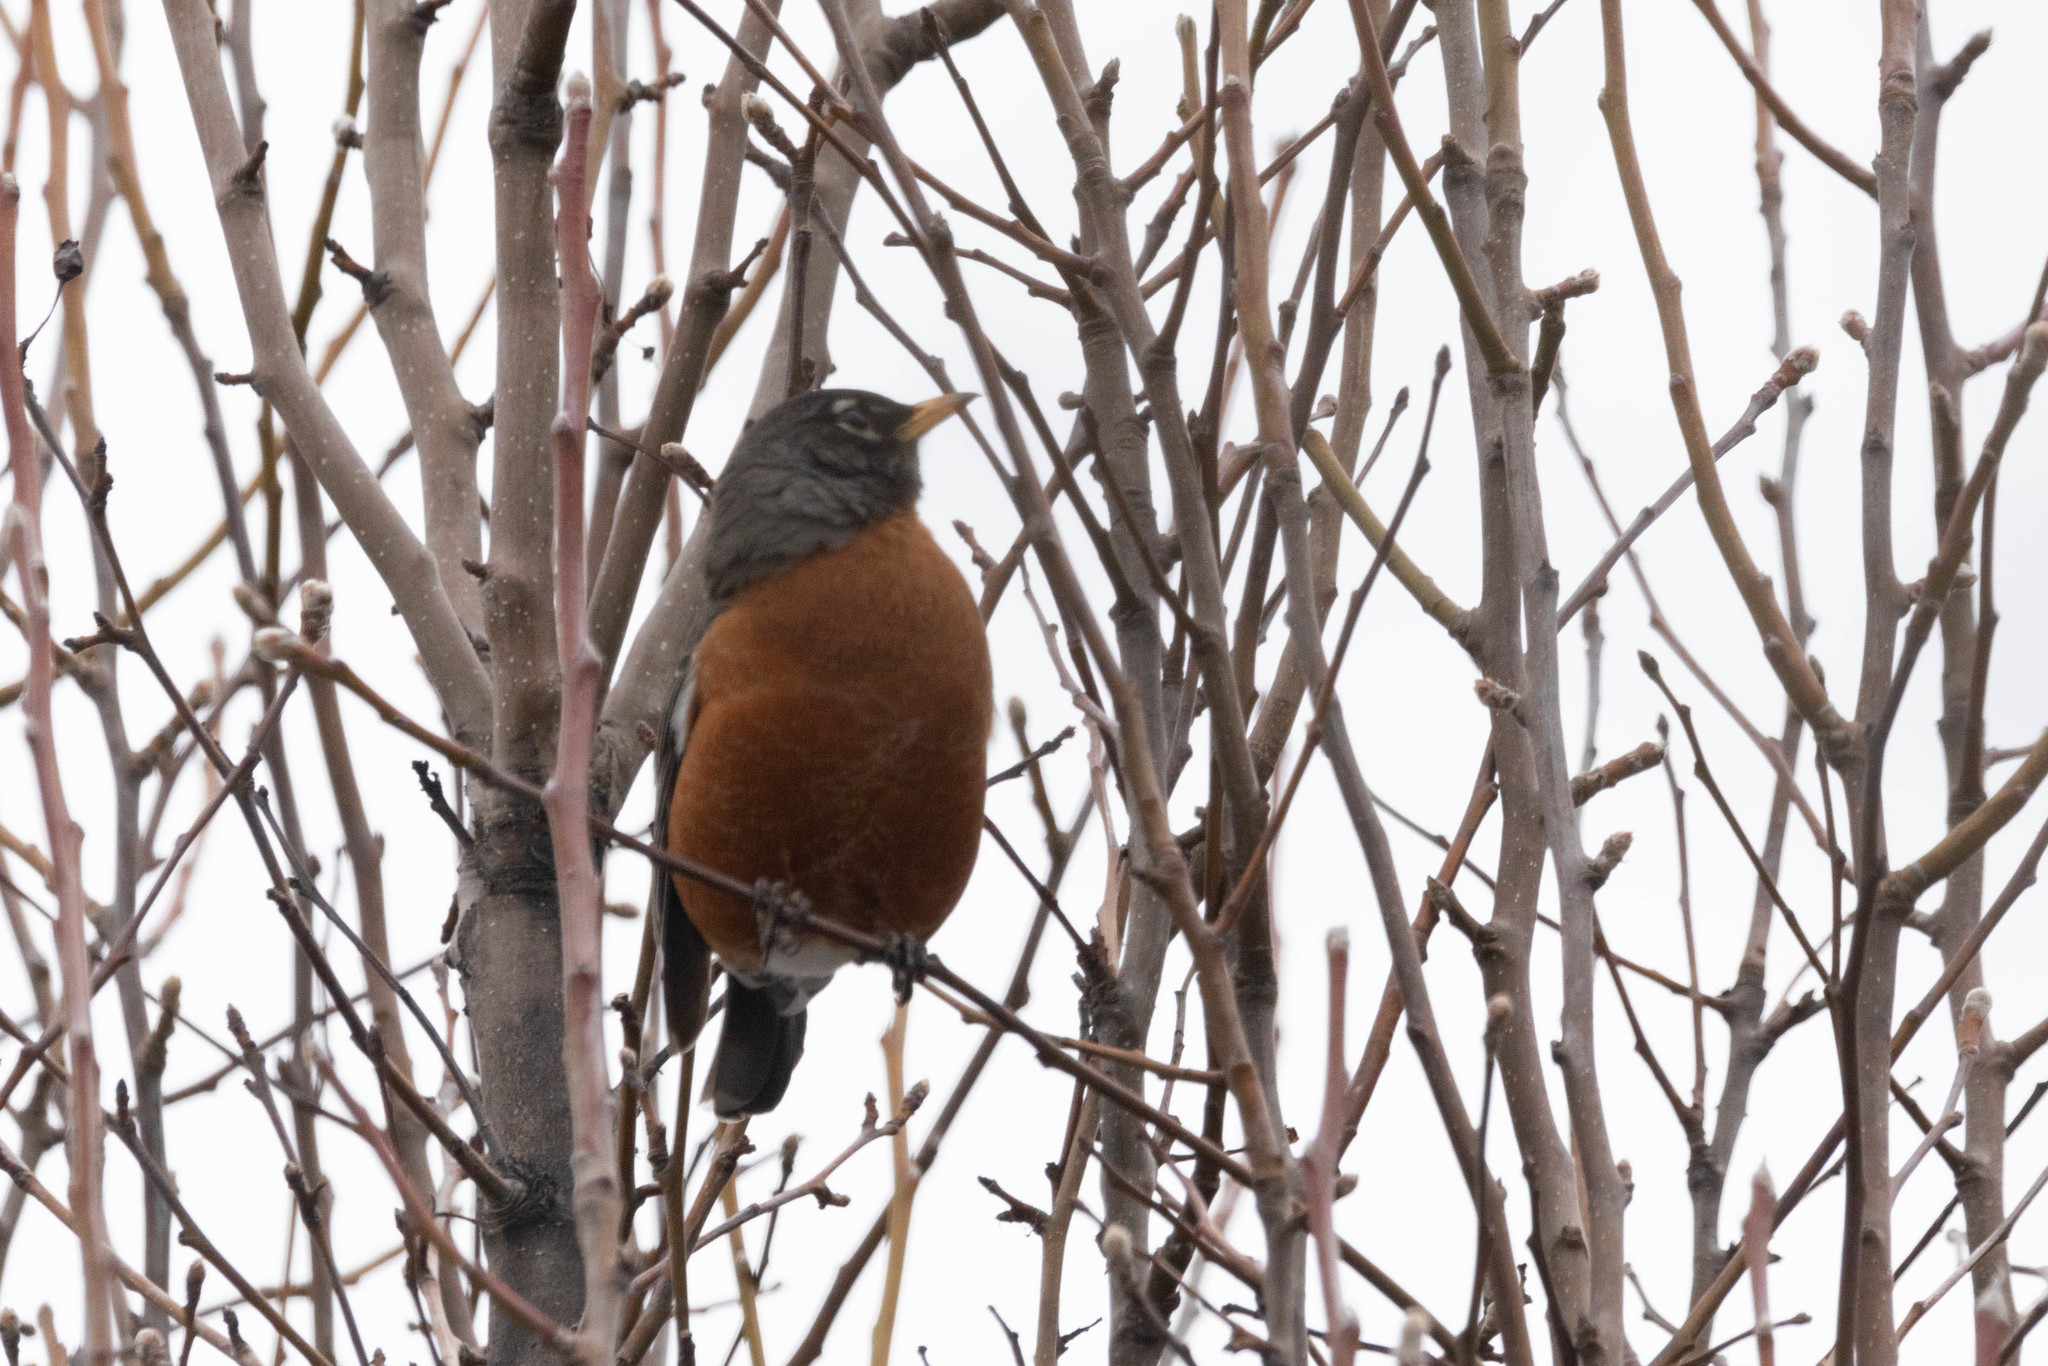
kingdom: Animalia
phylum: Chordata
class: Aves
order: Passeriformes
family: Turdidae
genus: Turdus
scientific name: Turdus migratorius
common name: American robin
